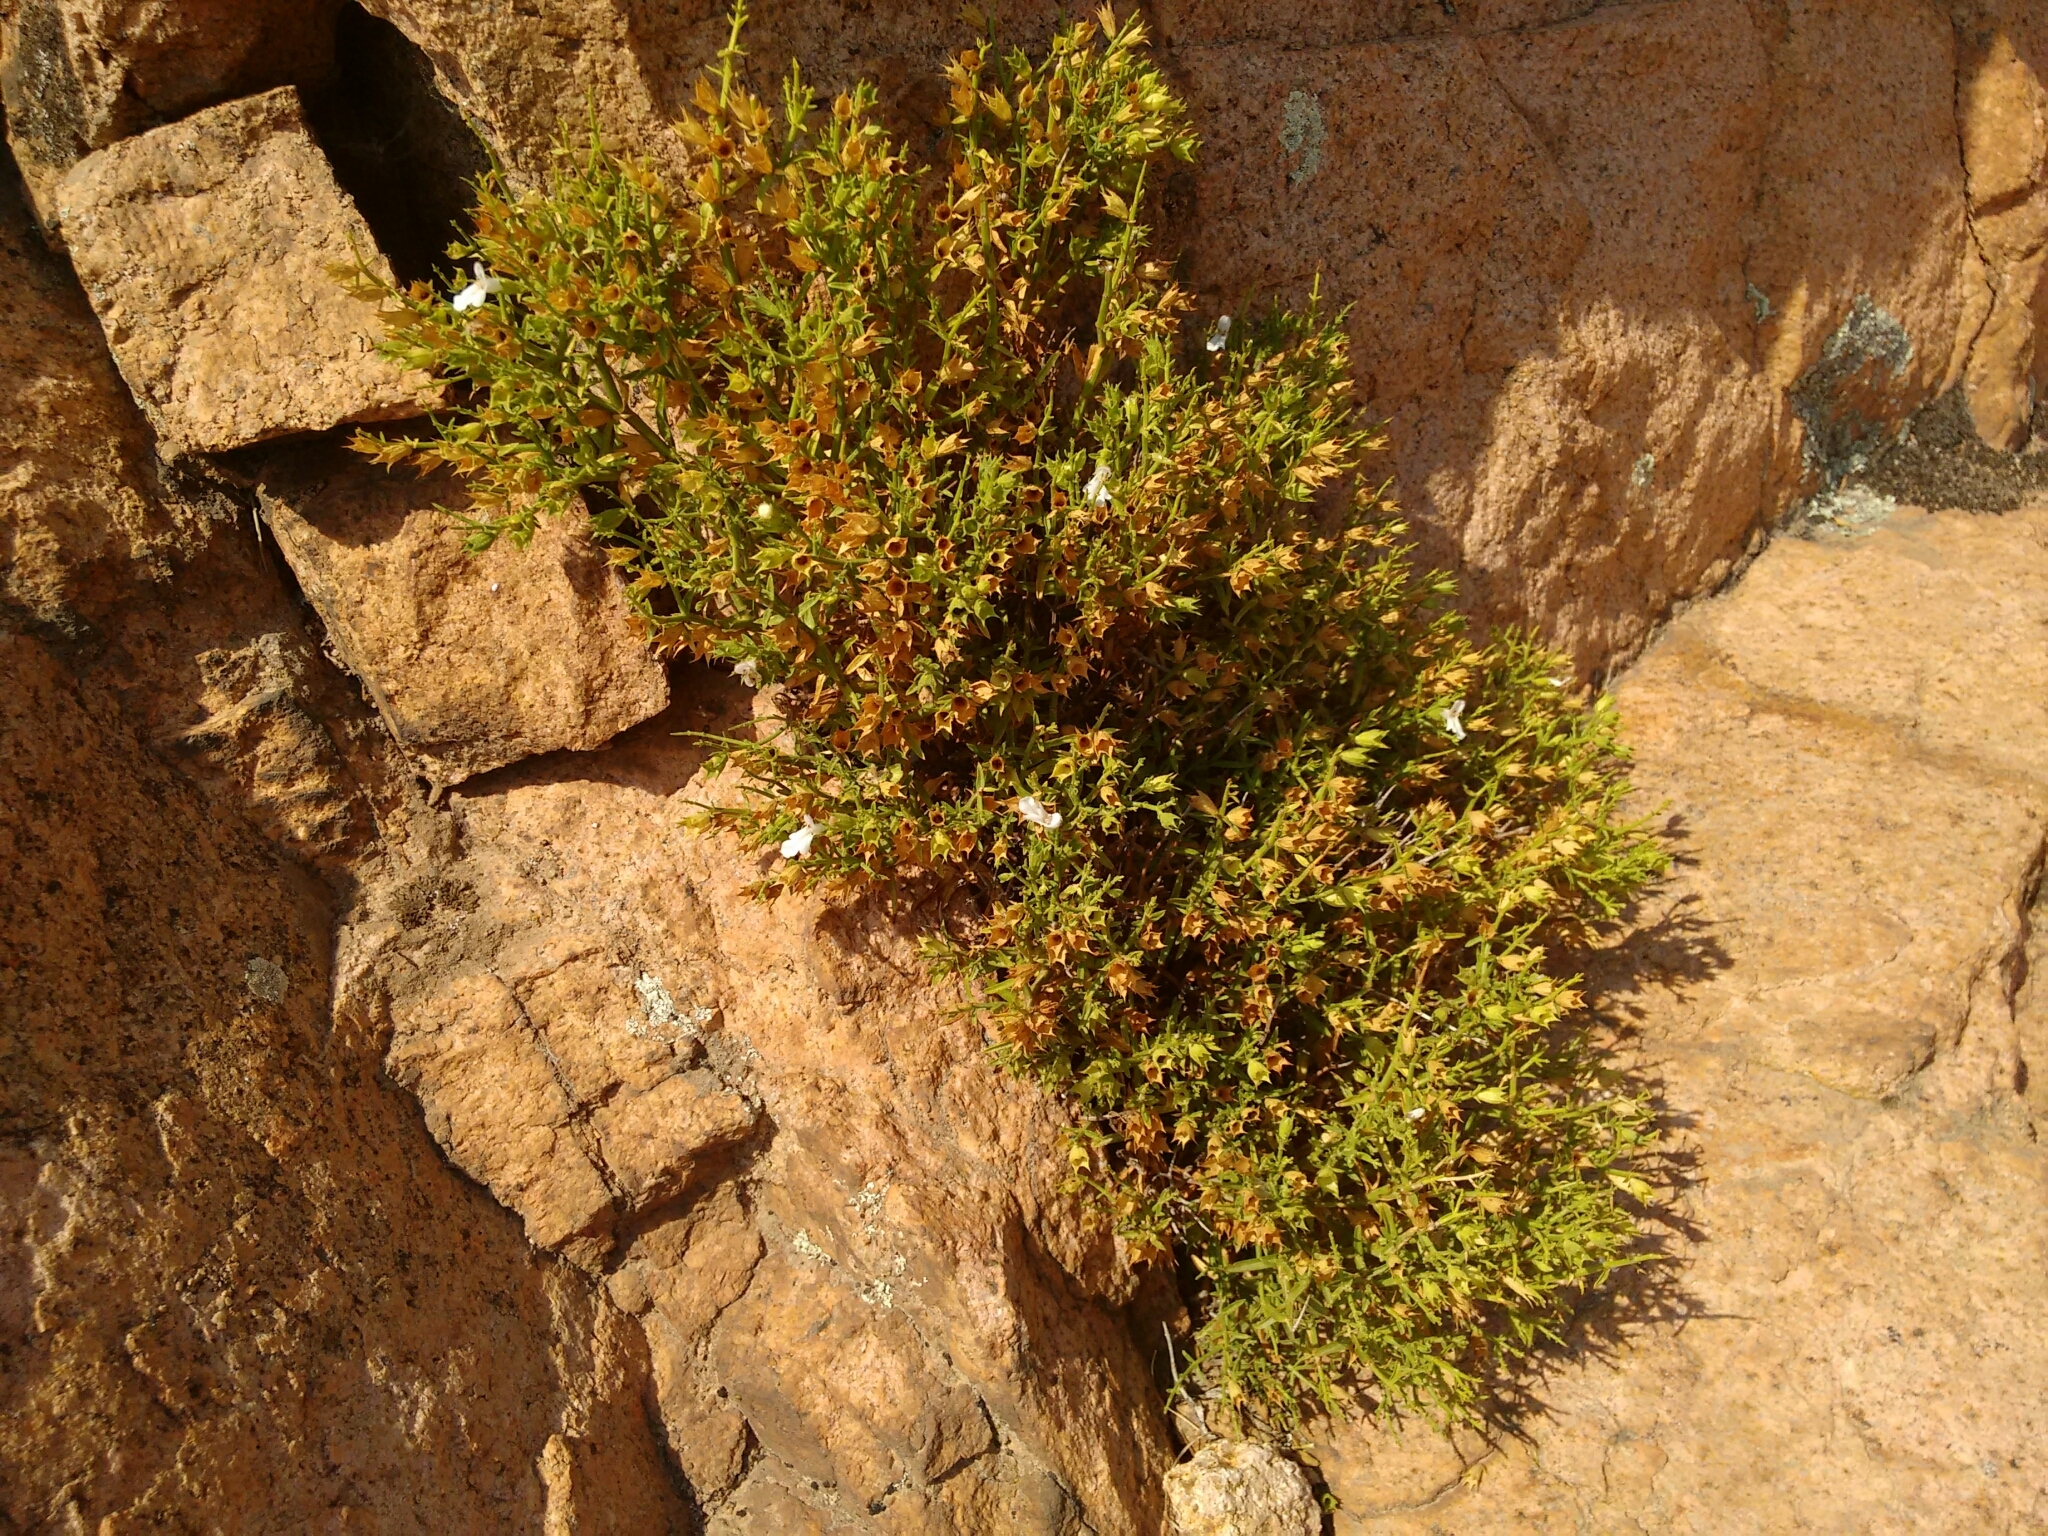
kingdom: Plantae
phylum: Tracheophyta
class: Magnoliopsida
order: Lamiales
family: Lamiaceae
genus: Stachys
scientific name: Stachys glutinosa
